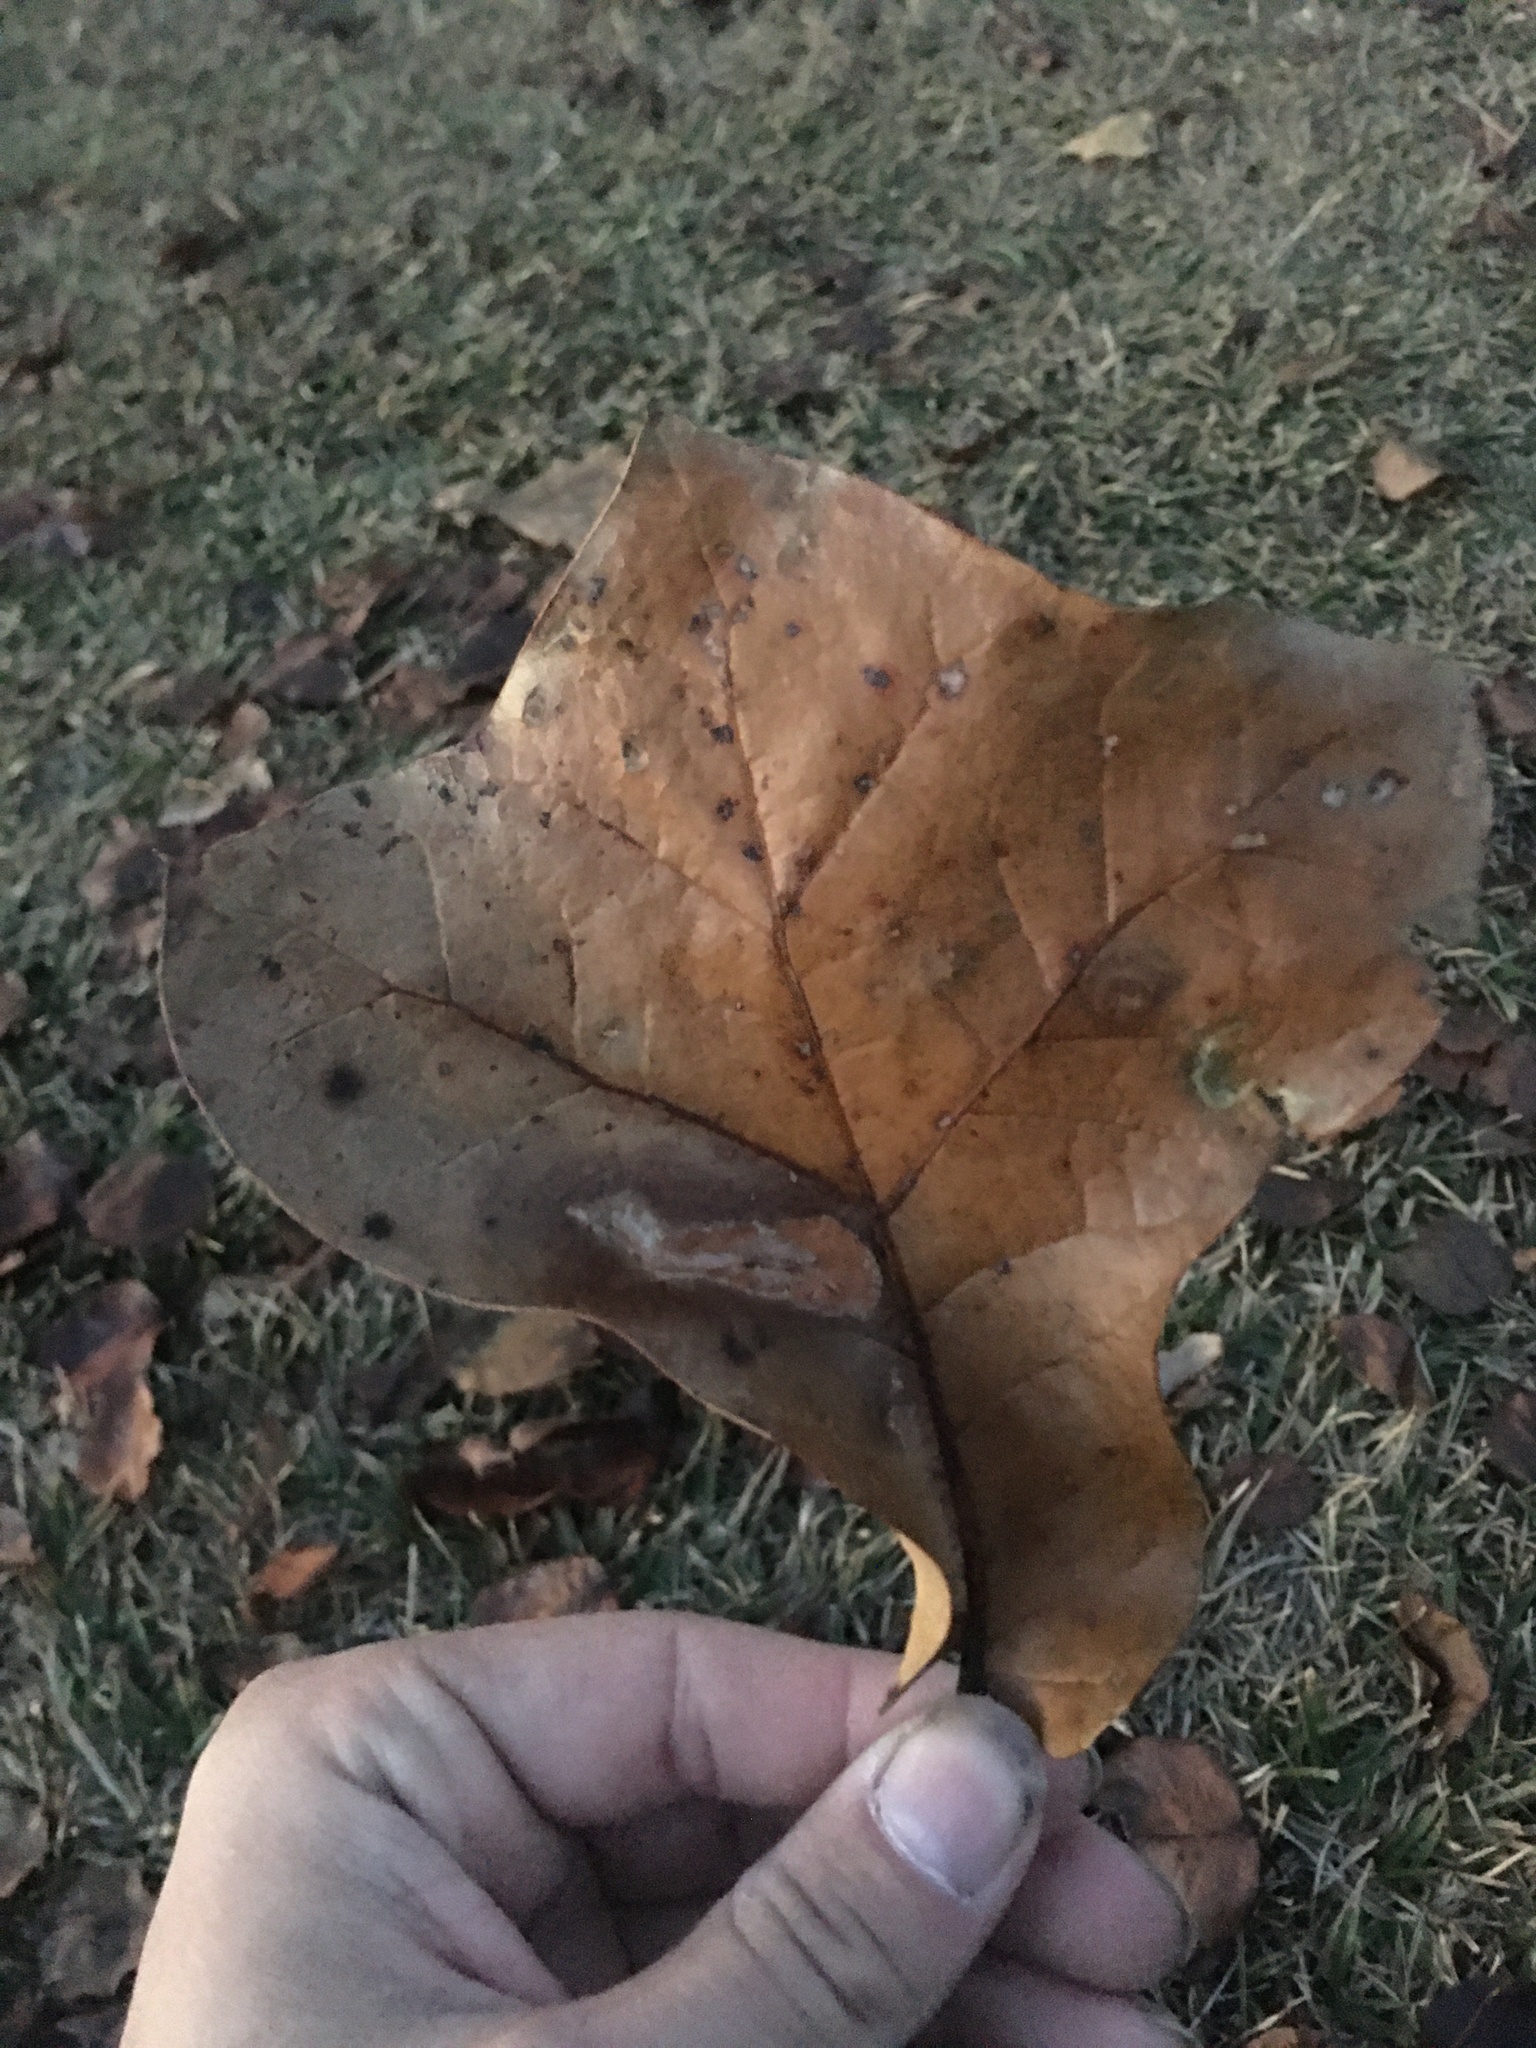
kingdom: Plantae
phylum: Tracheophyta
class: Magnoliopsida
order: Fagales
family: Fagaceae
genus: Quercus
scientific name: Quercus marilandica
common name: Blackjack oak
